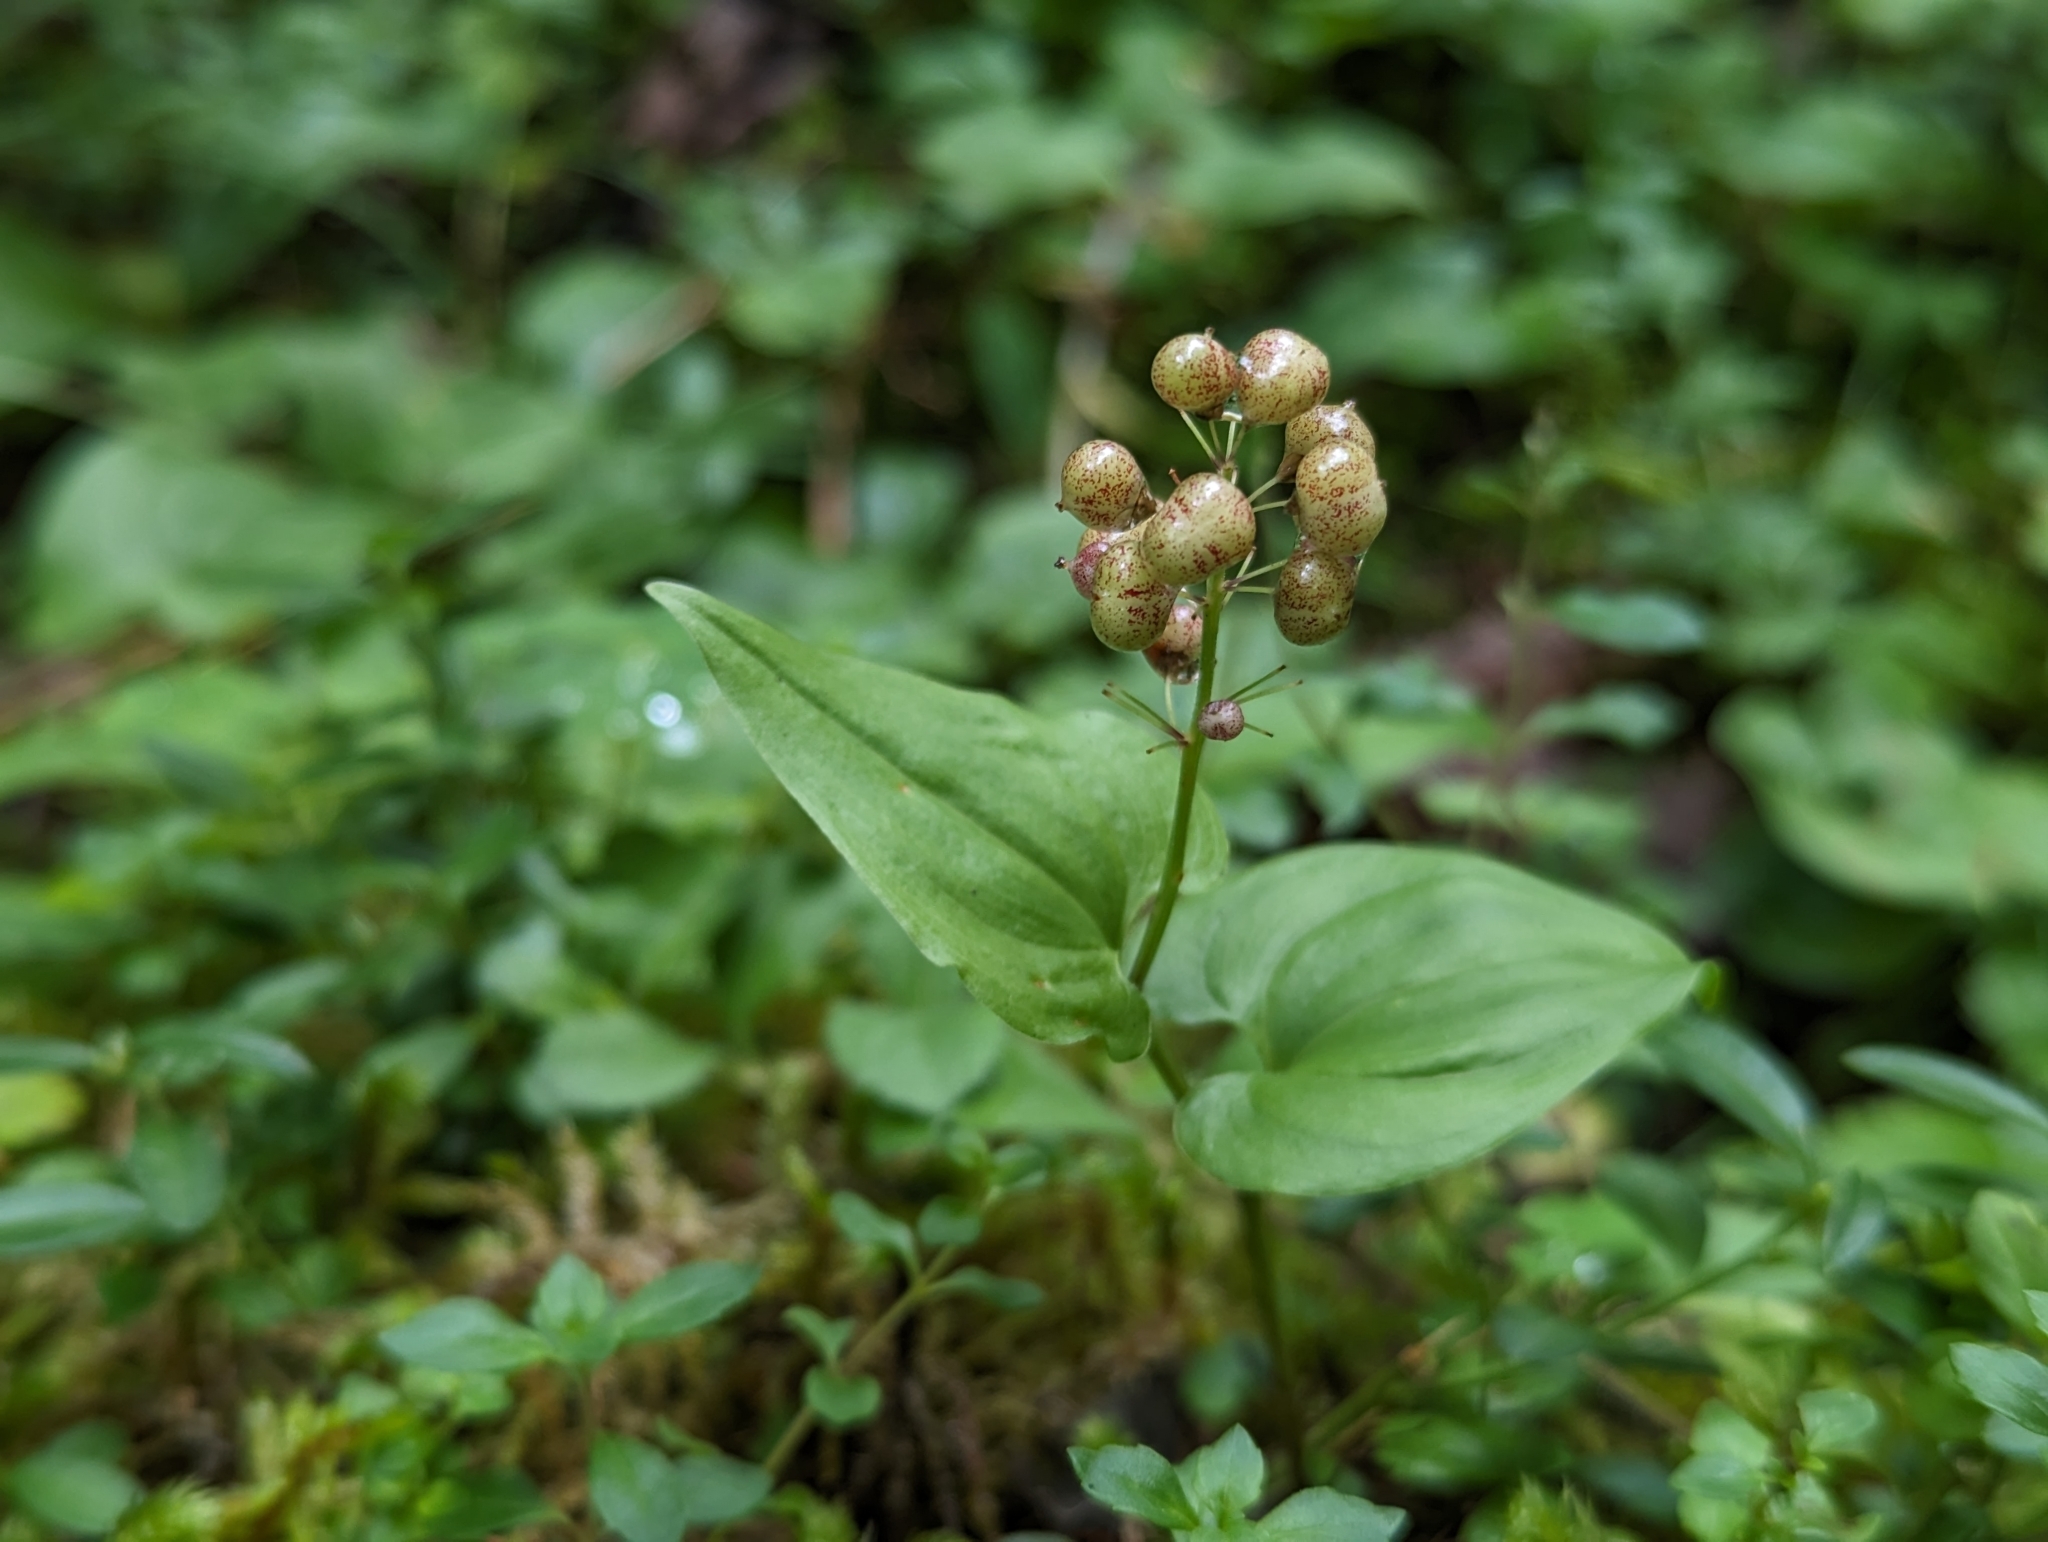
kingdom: Plantae
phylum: Tracheophyta
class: Liliopsida
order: Asparagales
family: Asparagaceae
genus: Maianthemum
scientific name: Maianthemum bifolium
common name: May lily
